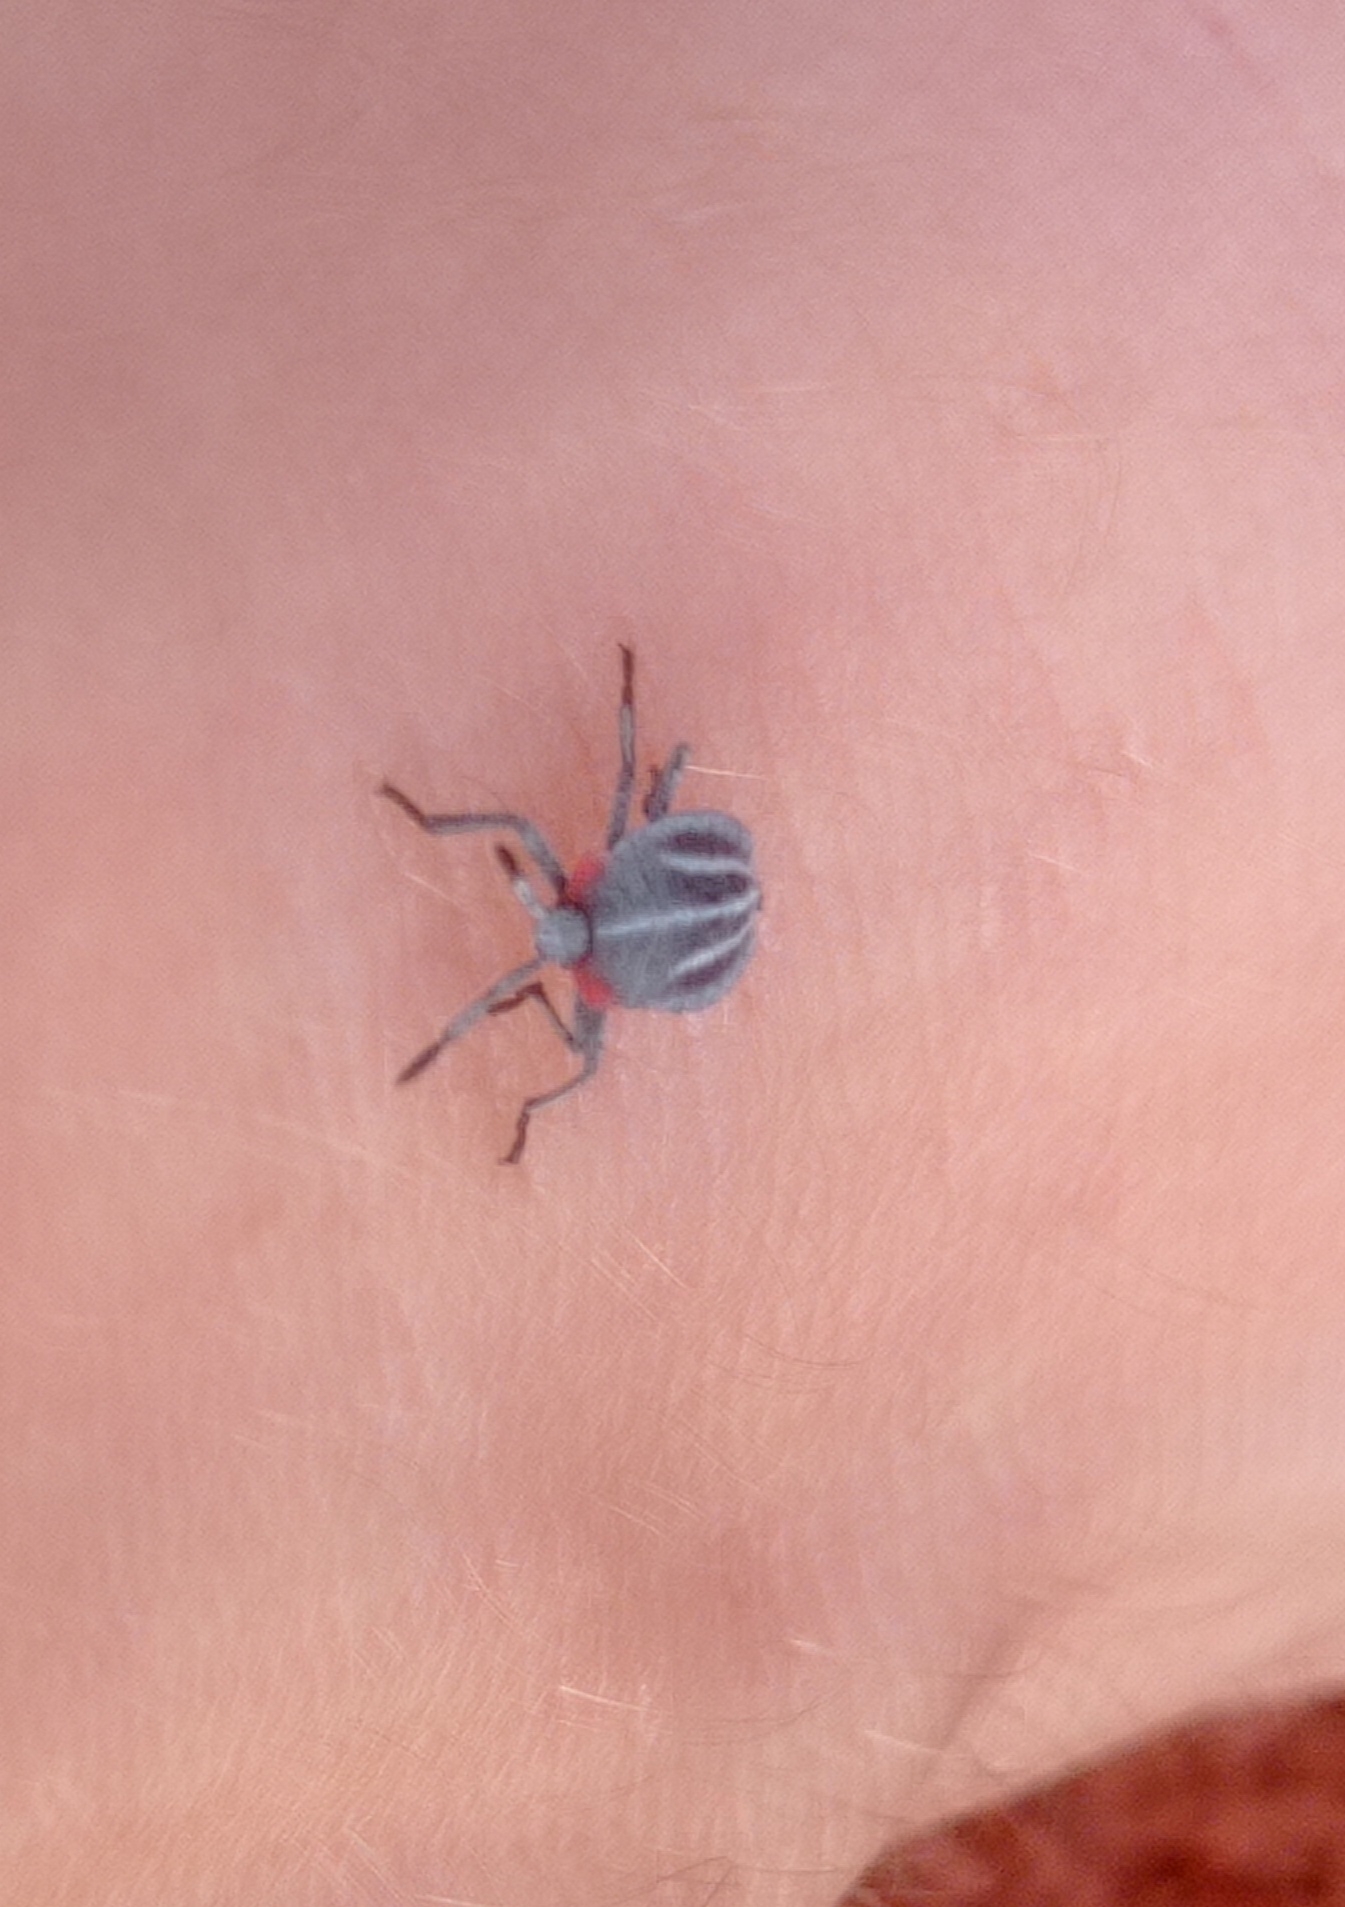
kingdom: Animalia
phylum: Arthropoda
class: Insecta
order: Hemiptera
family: Tessaratomidae
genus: Tessaratoma
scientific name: Tessaratoma papillosa
